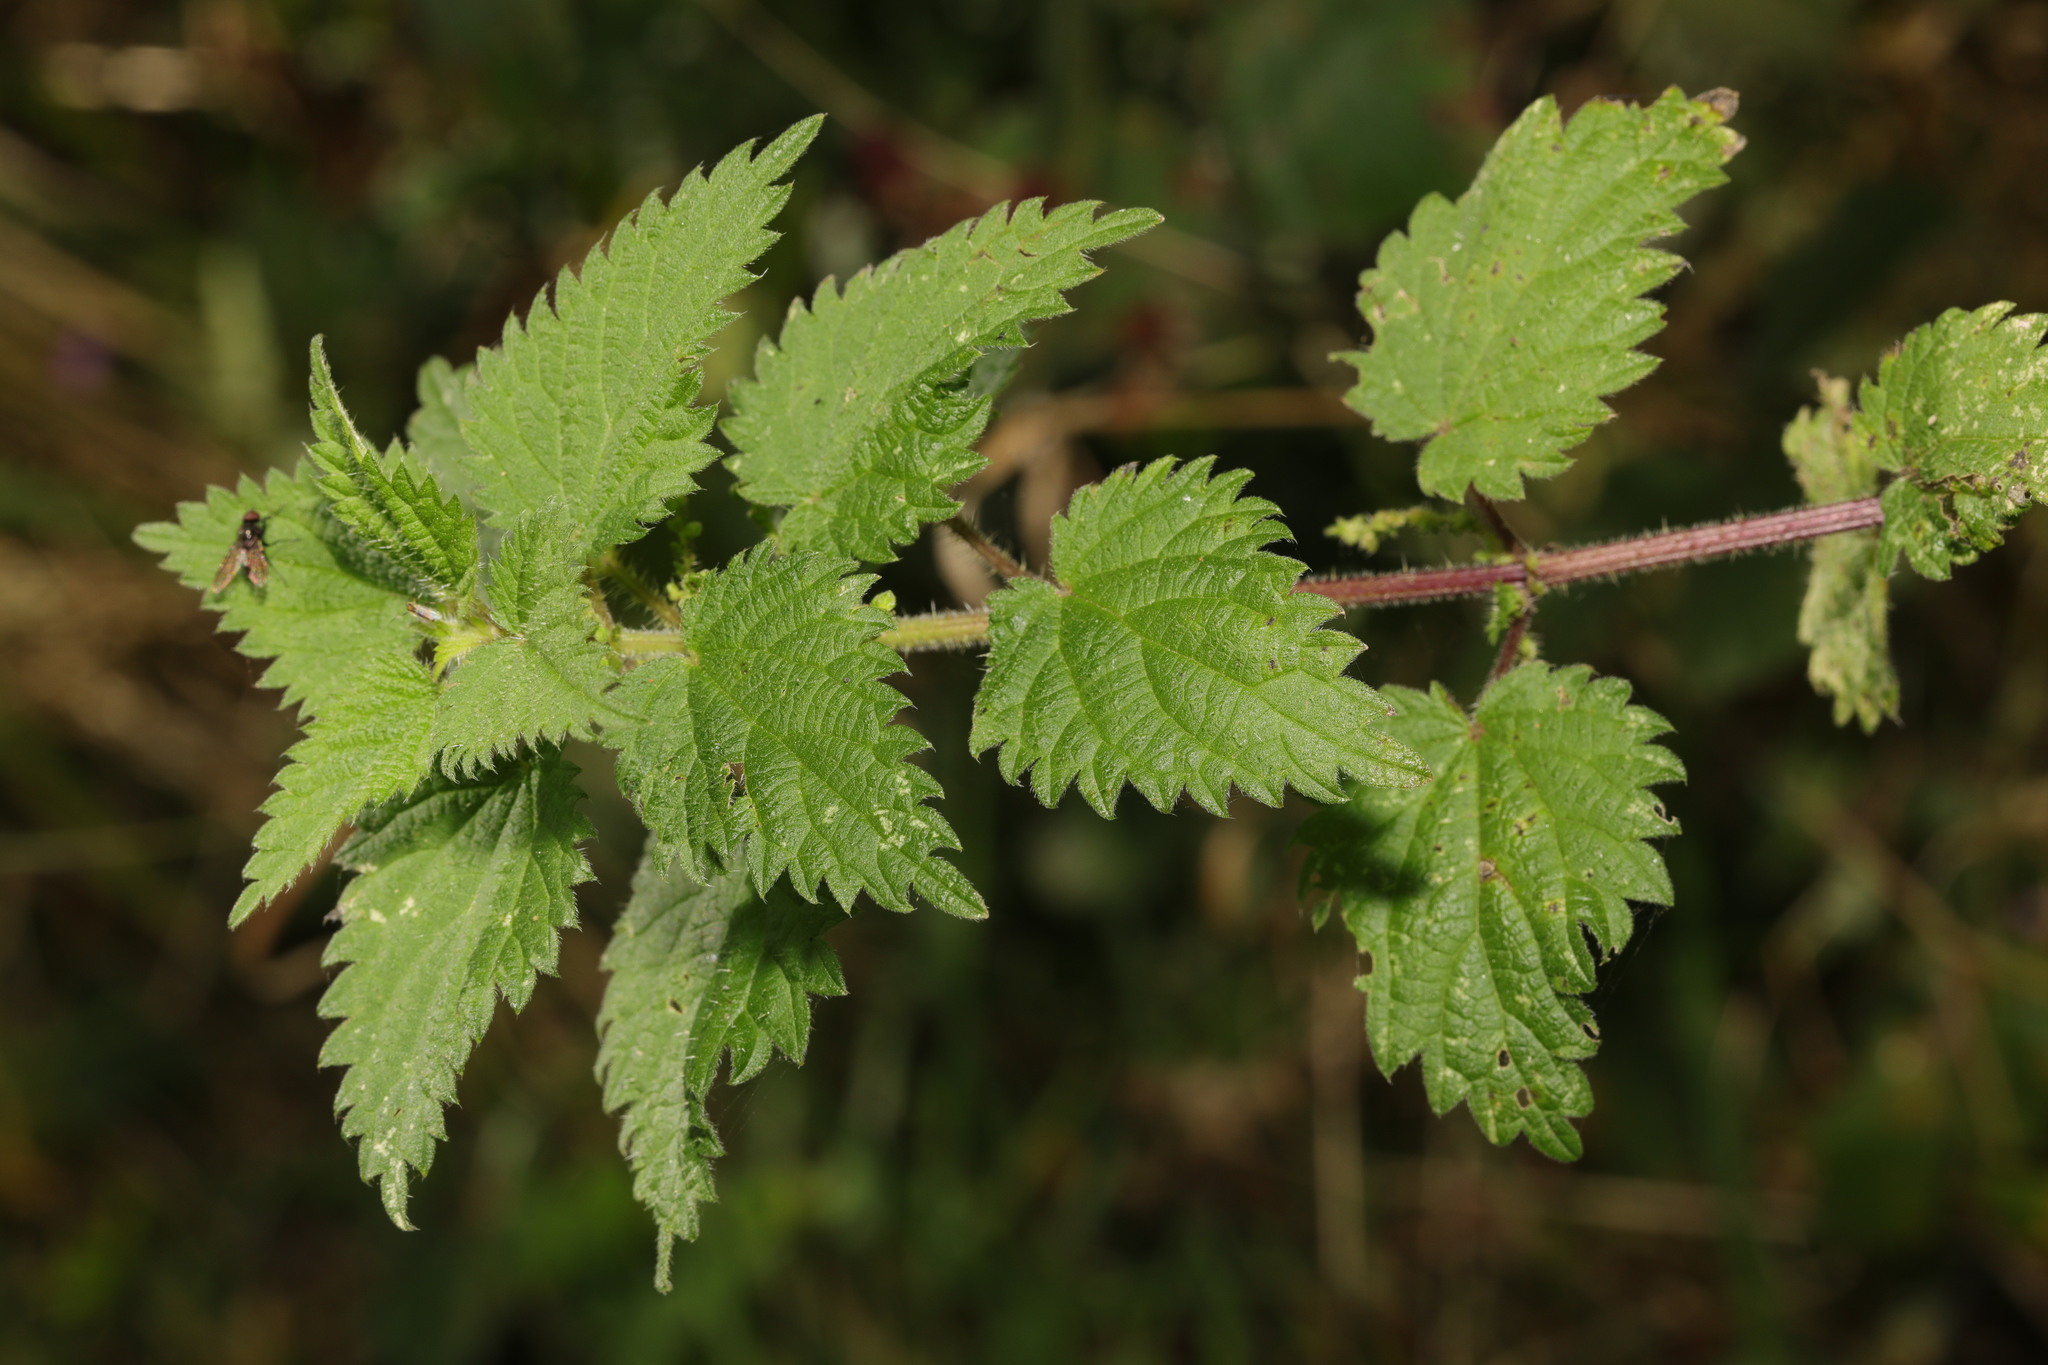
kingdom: Plantae
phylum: Tracheophyta
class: Magnoliopsida
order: Rosales
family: Urticaceae
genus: Urtica
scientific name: Urtica dioica
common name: Common nettle
